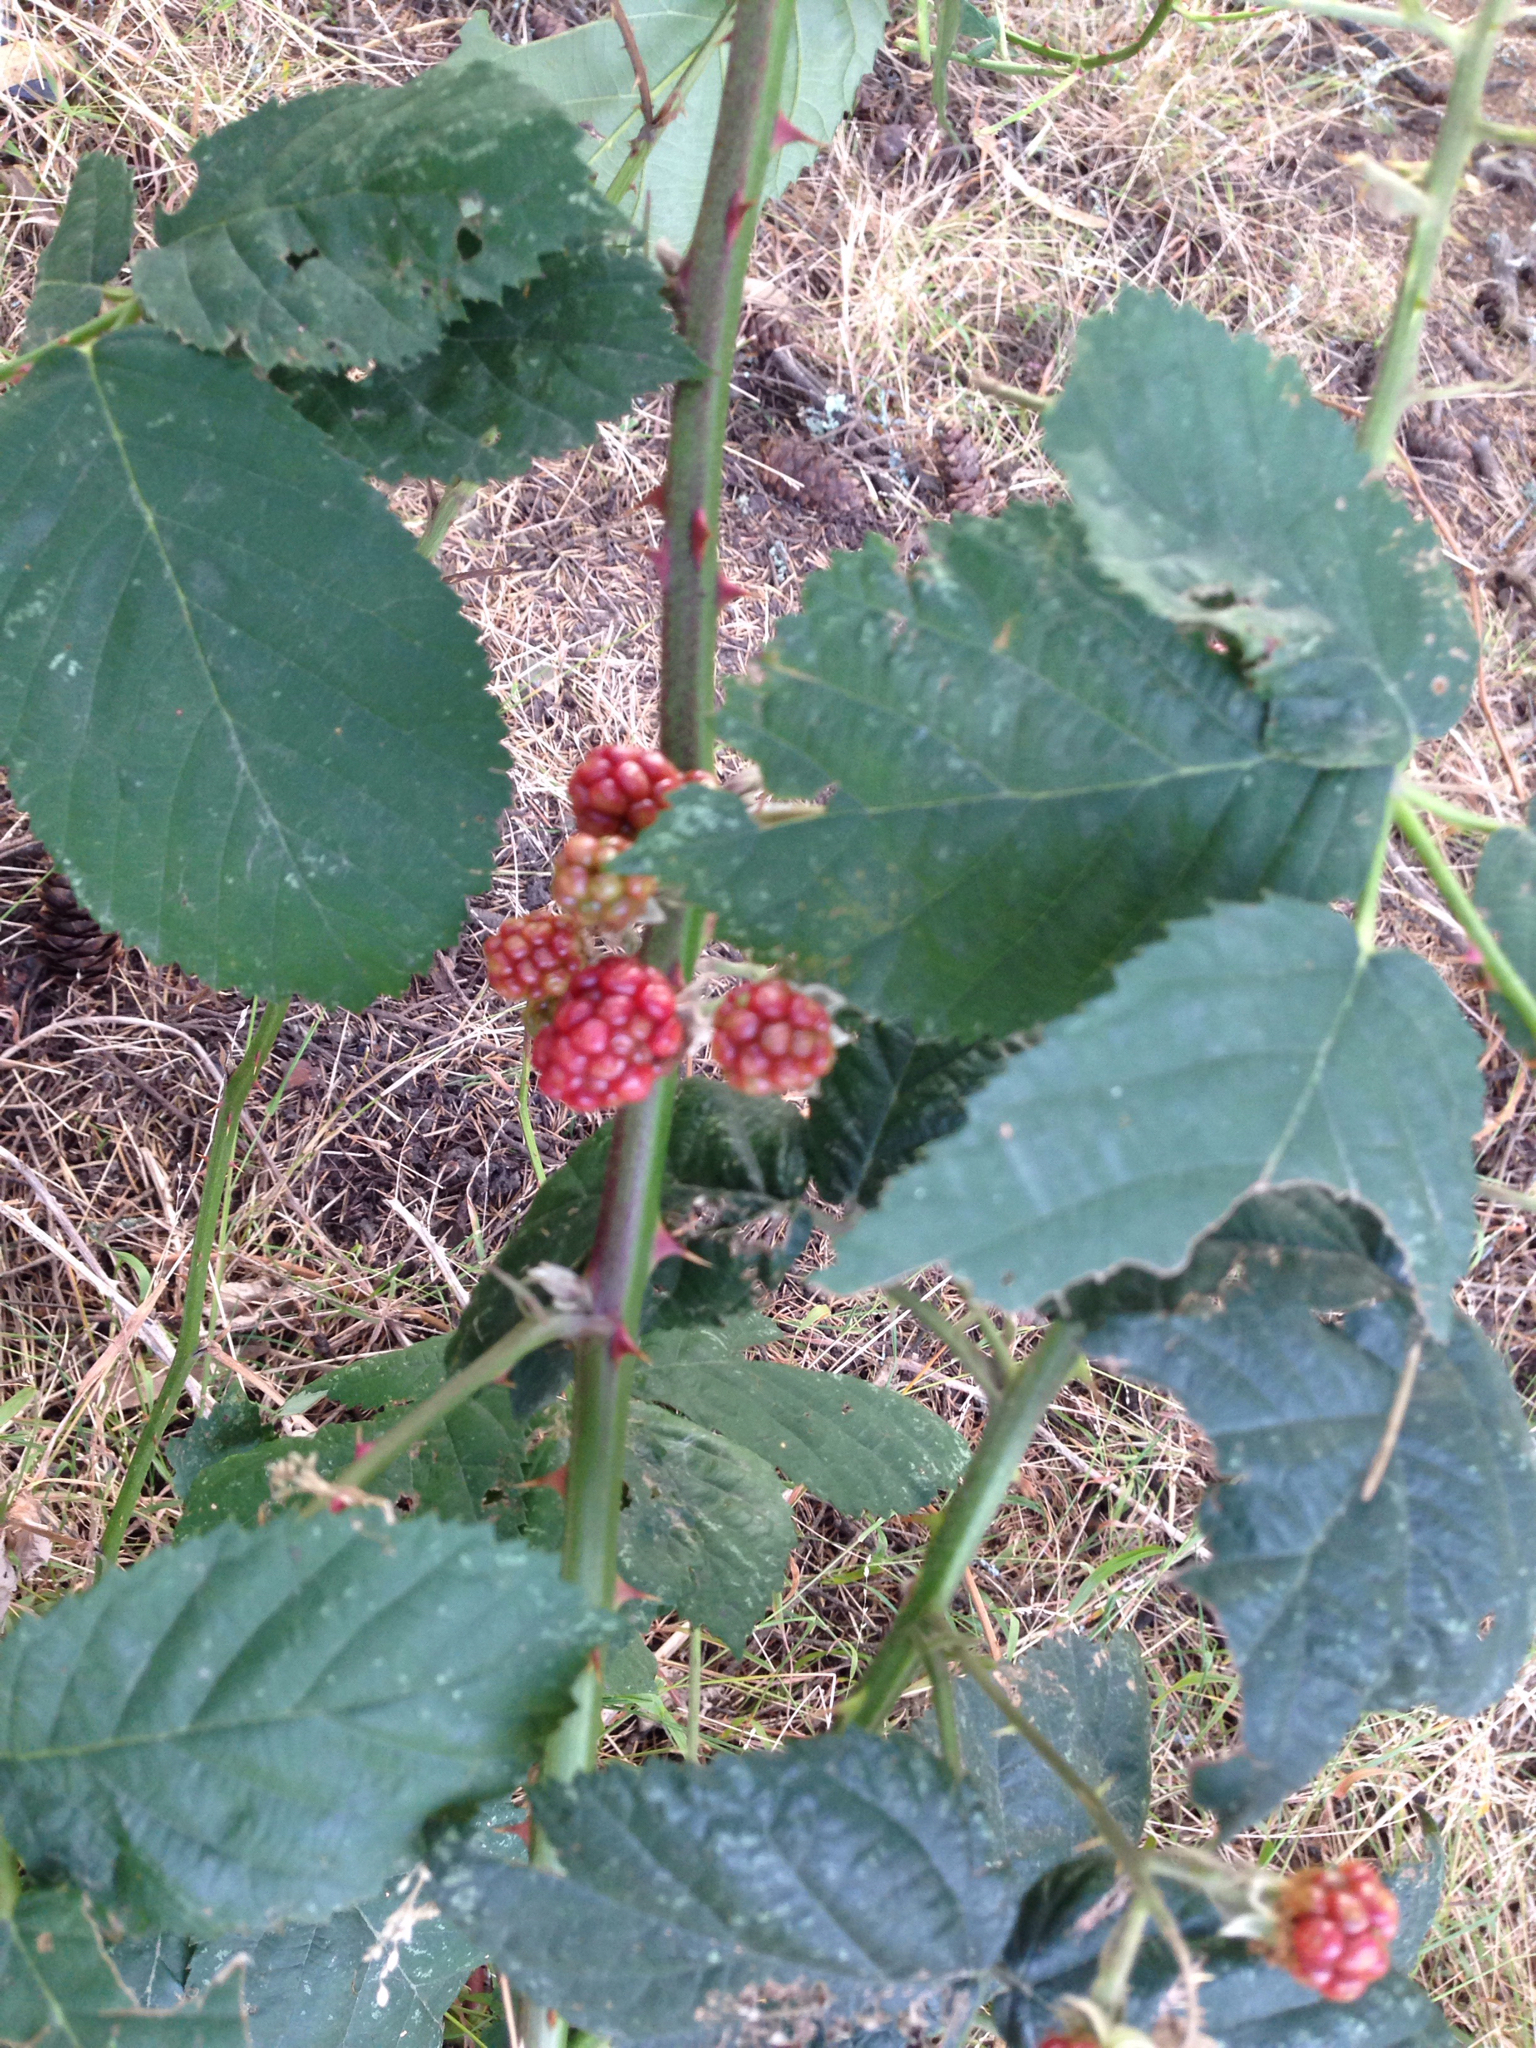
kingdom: Plantae
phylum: Tracheophyta
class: Magnoliopsida
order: Rosales
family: Rosaceae
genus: Rubus
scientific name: Rubus armeniacus
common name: Himalayan blackberry
